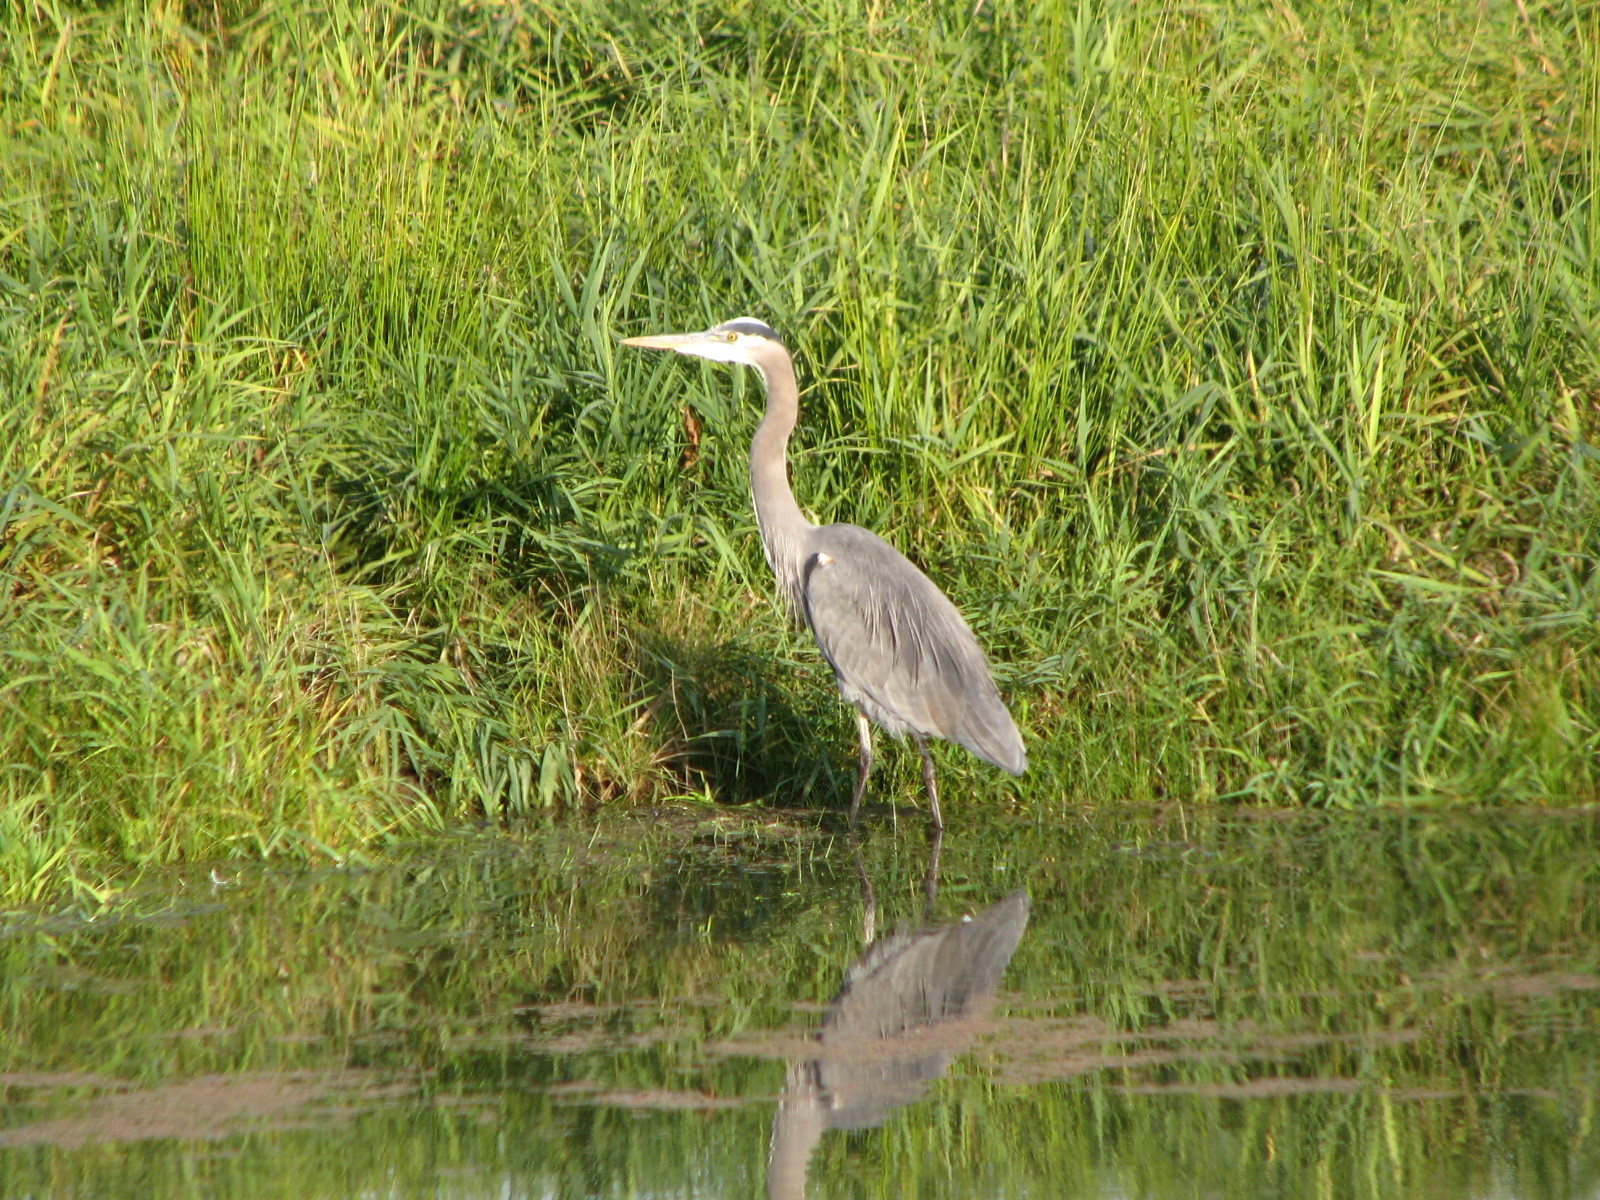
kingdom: Animalia
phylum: Chordata
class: Aves
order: Pelecaniformes
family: Ardeidae
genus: Ardea
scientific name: Ardea herodias
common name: Great blue heron
